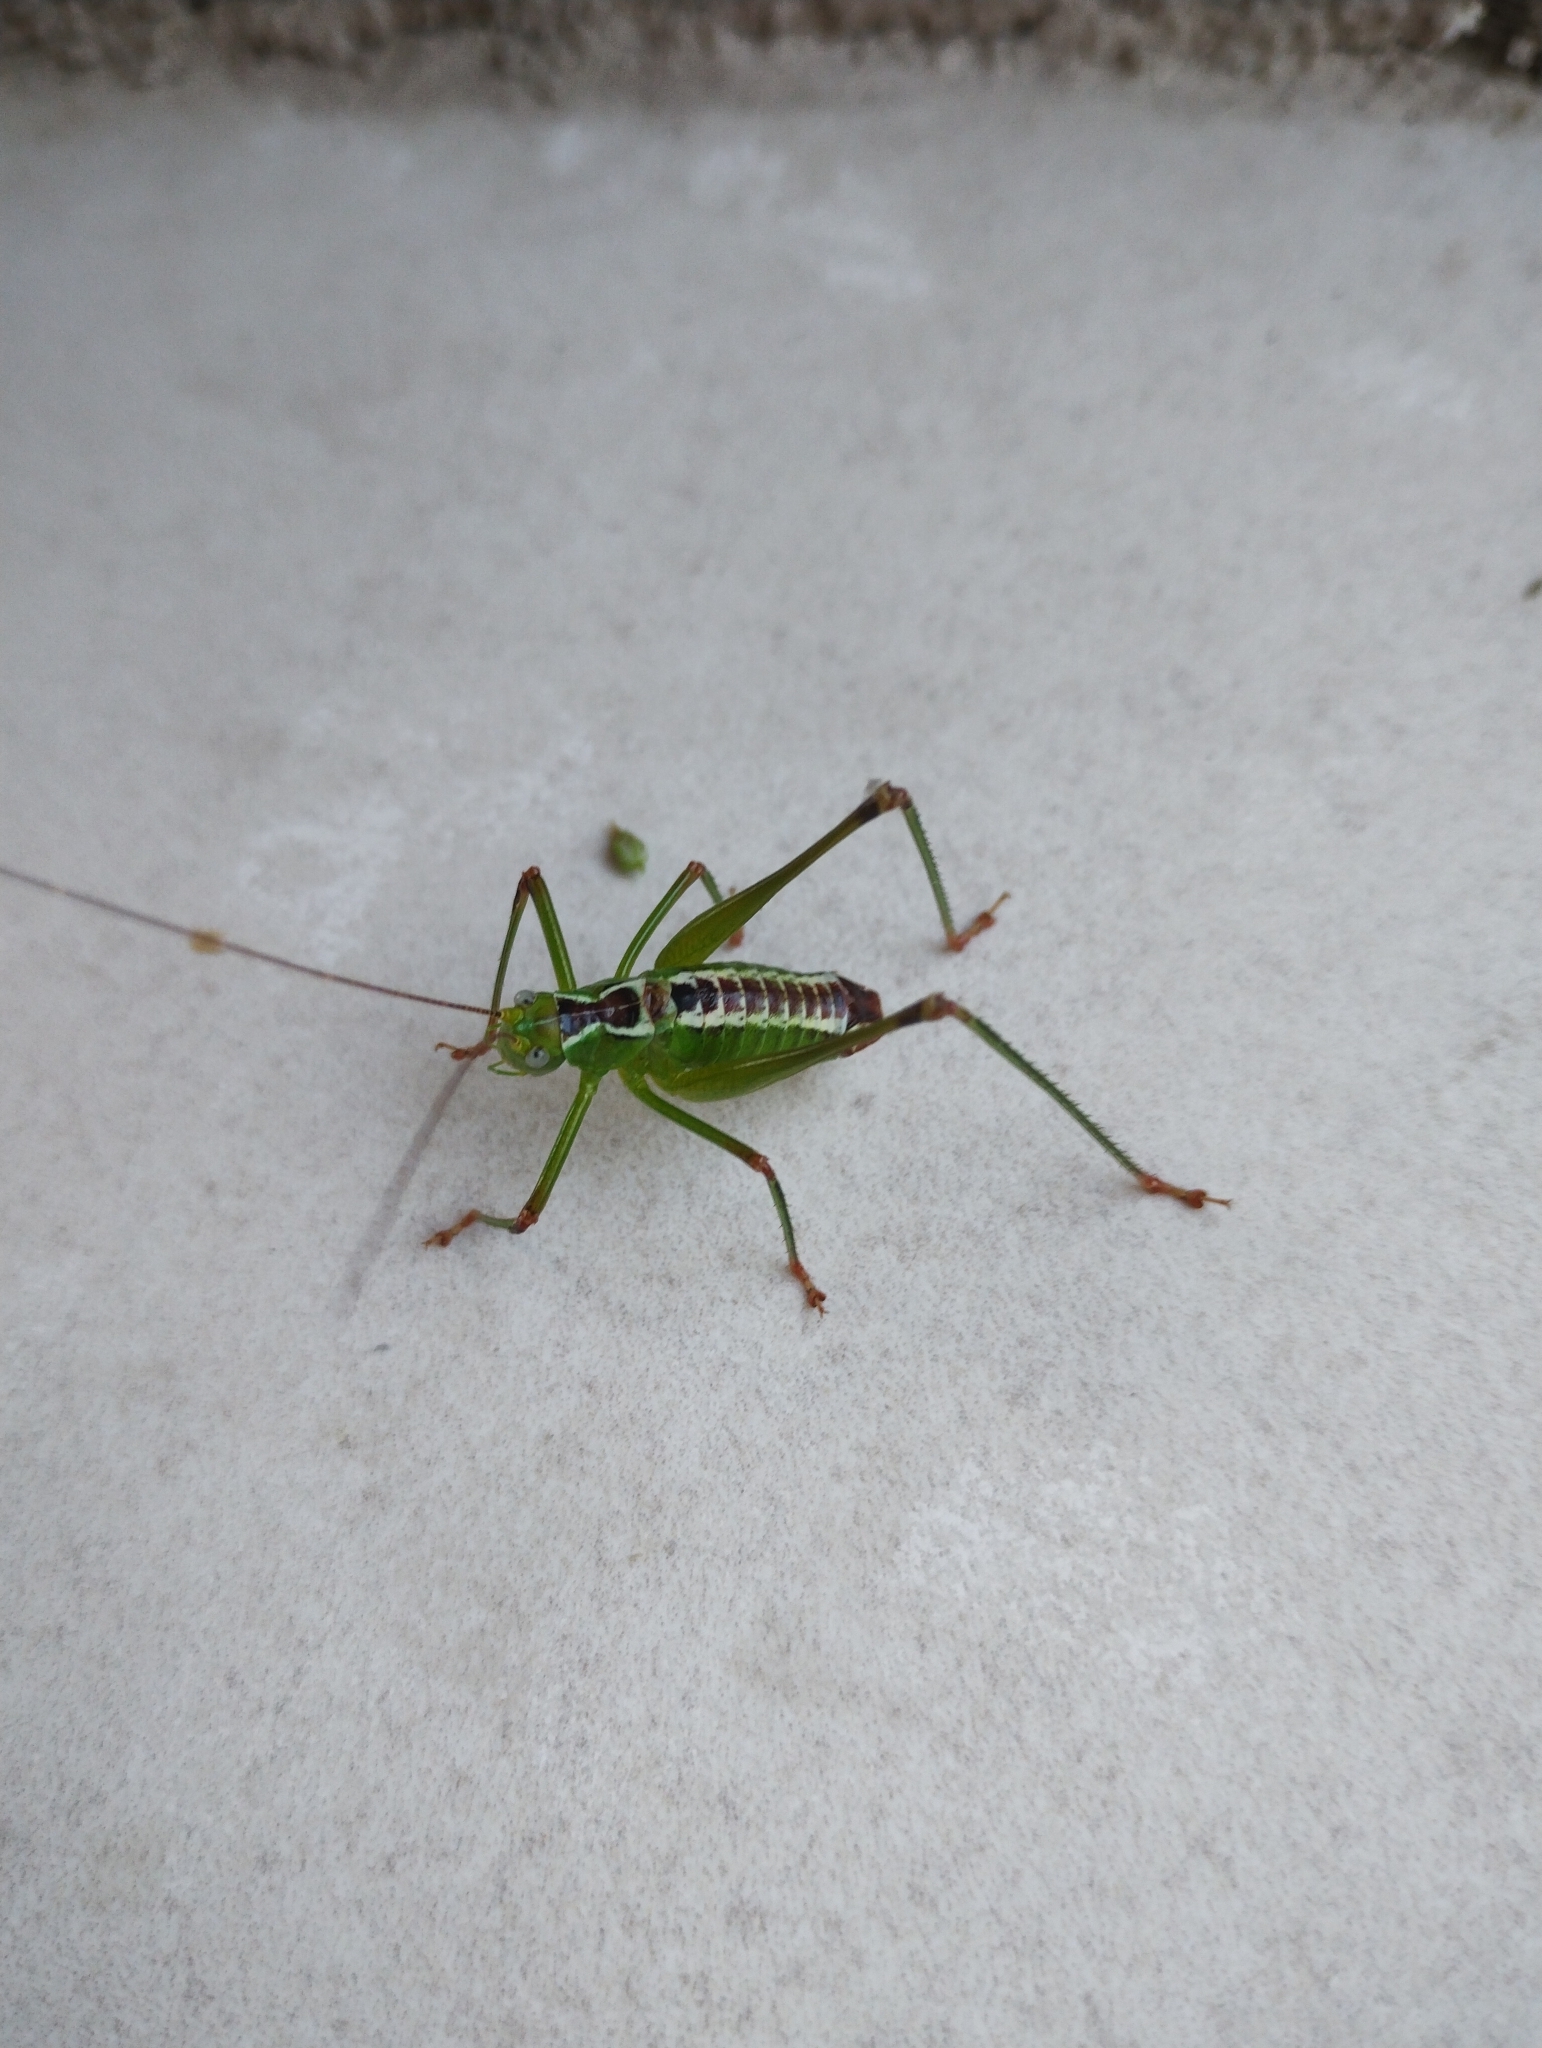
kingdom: Animalia
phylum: Arthropoda
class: Insecta
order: Orthoptera
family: Tettigoniidae
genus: Andreiniimon
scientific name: Andreiniimon nuptialis
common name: Splendid bush-cricket
